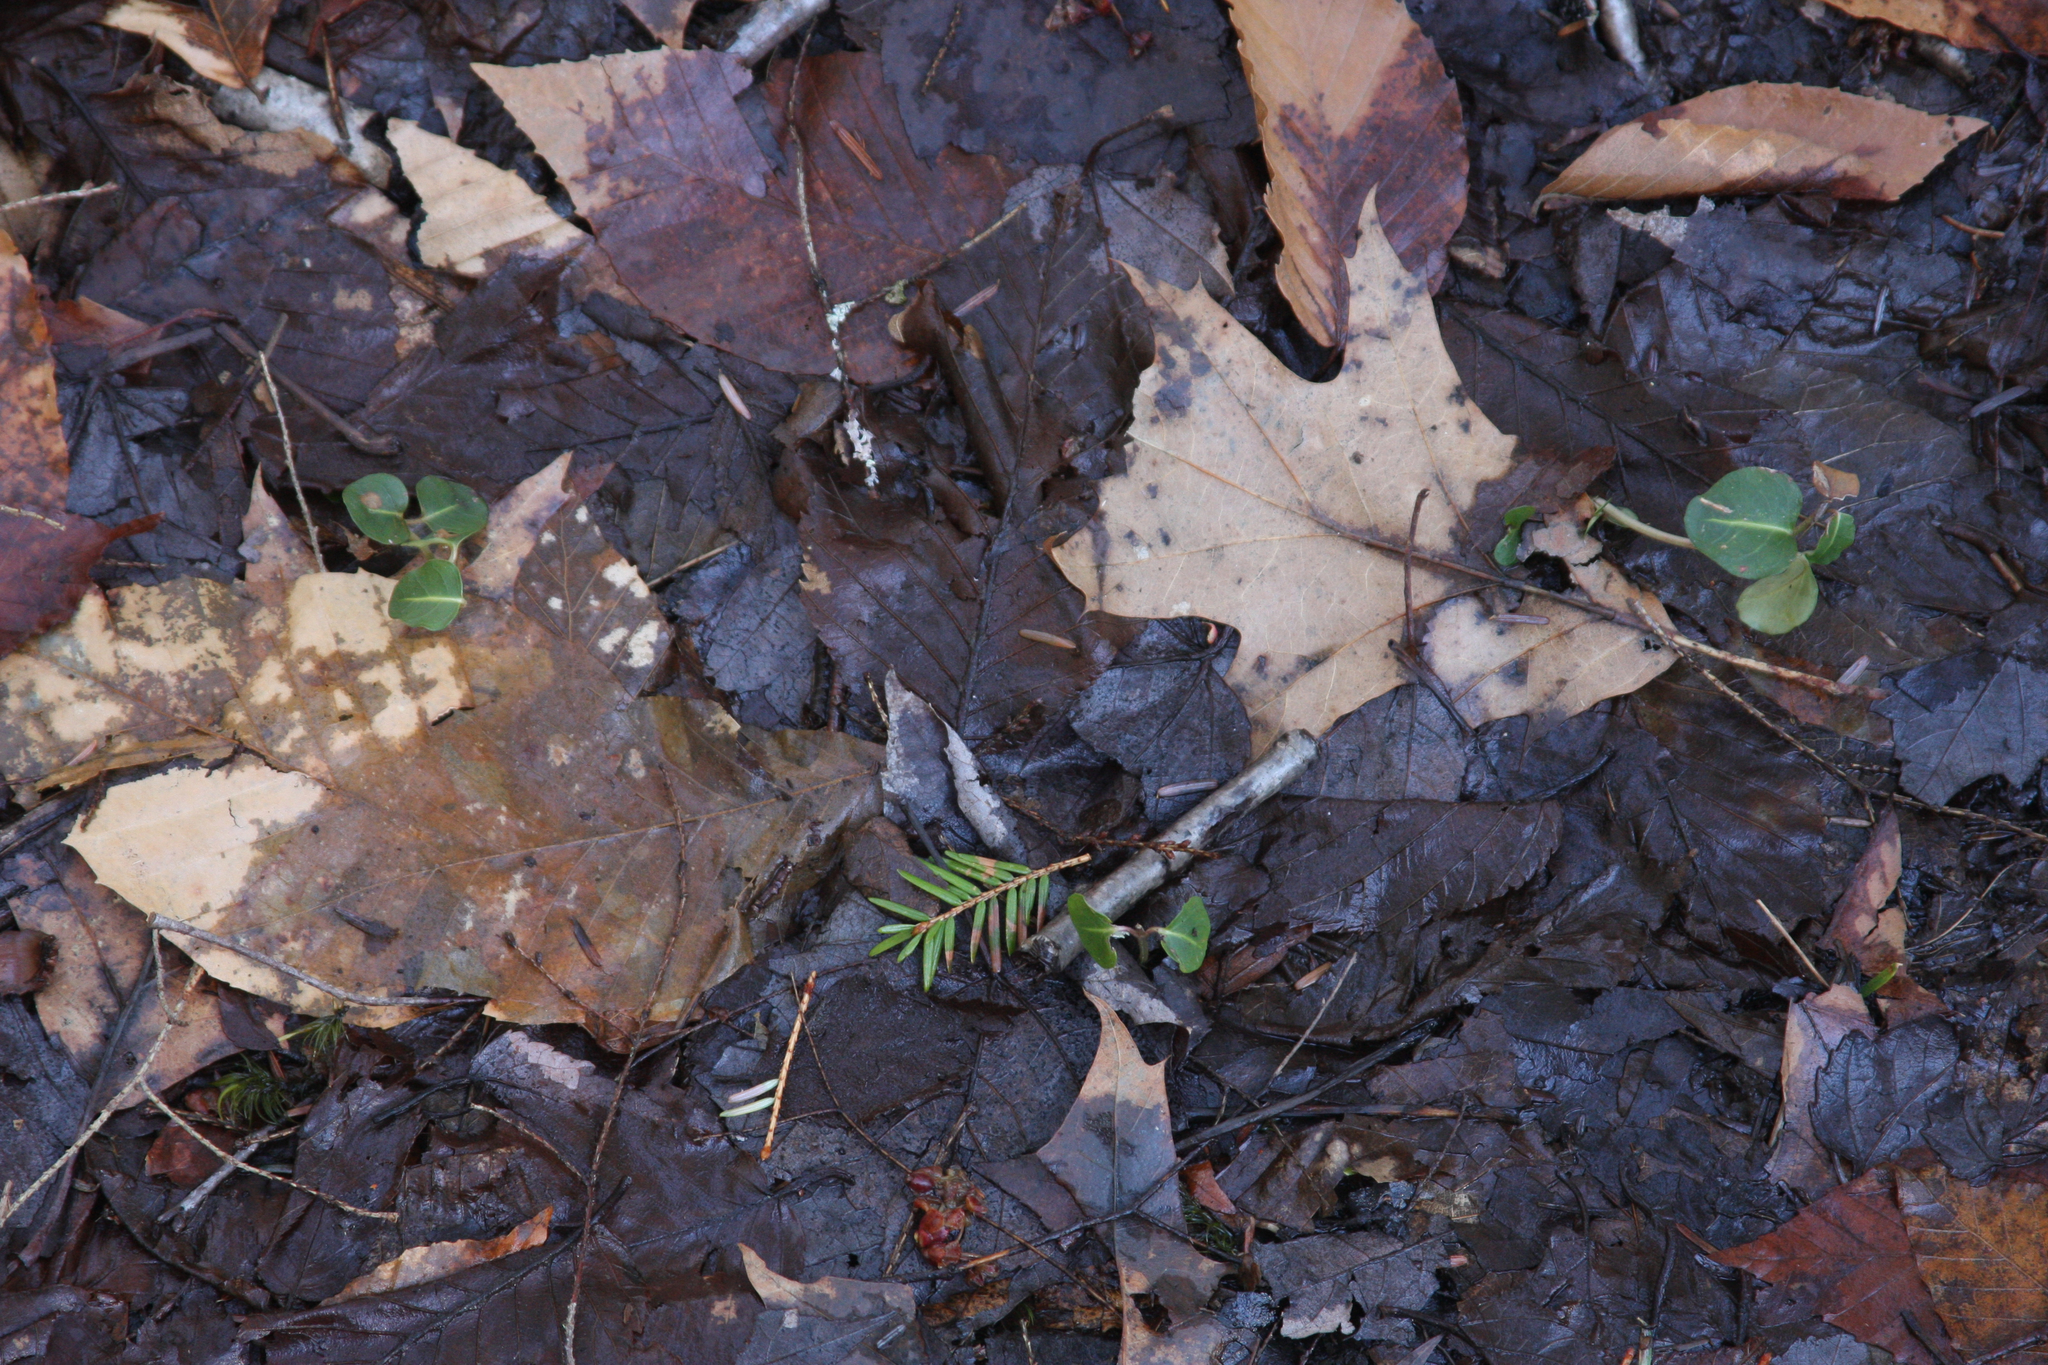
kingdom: Plantae
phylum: Tracheophyta
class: Magnoliopsida
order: Gentianales
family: Rubiaceae
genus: Mitchella
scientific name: Mitchella repens
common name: Partridge-berry
